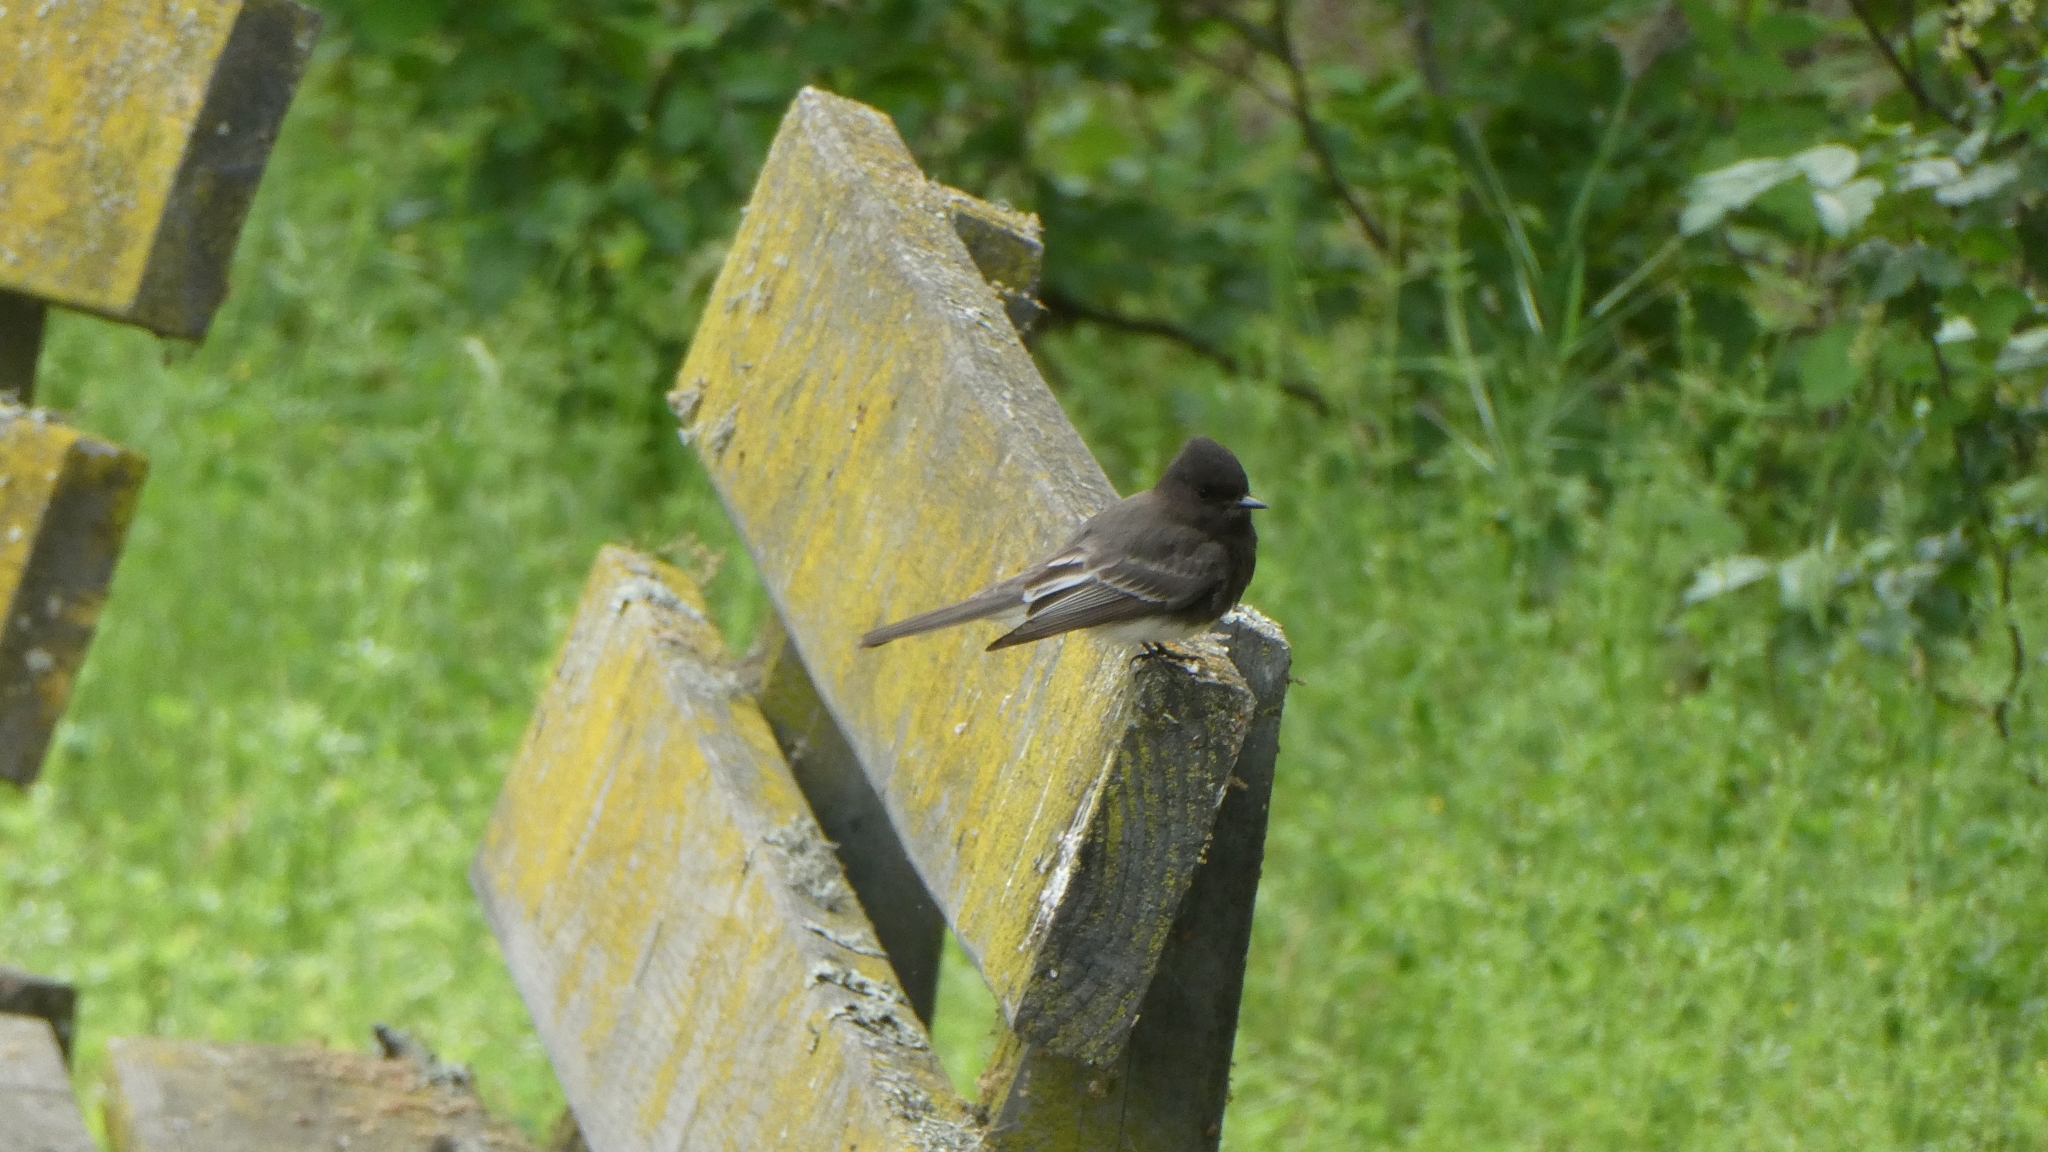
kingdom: Animalia
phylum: Chordata
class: Aves
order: Passeriformes
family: Tyrannidae
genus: Sayornis
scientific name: Sayornis nigricans
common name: Black phoebe
